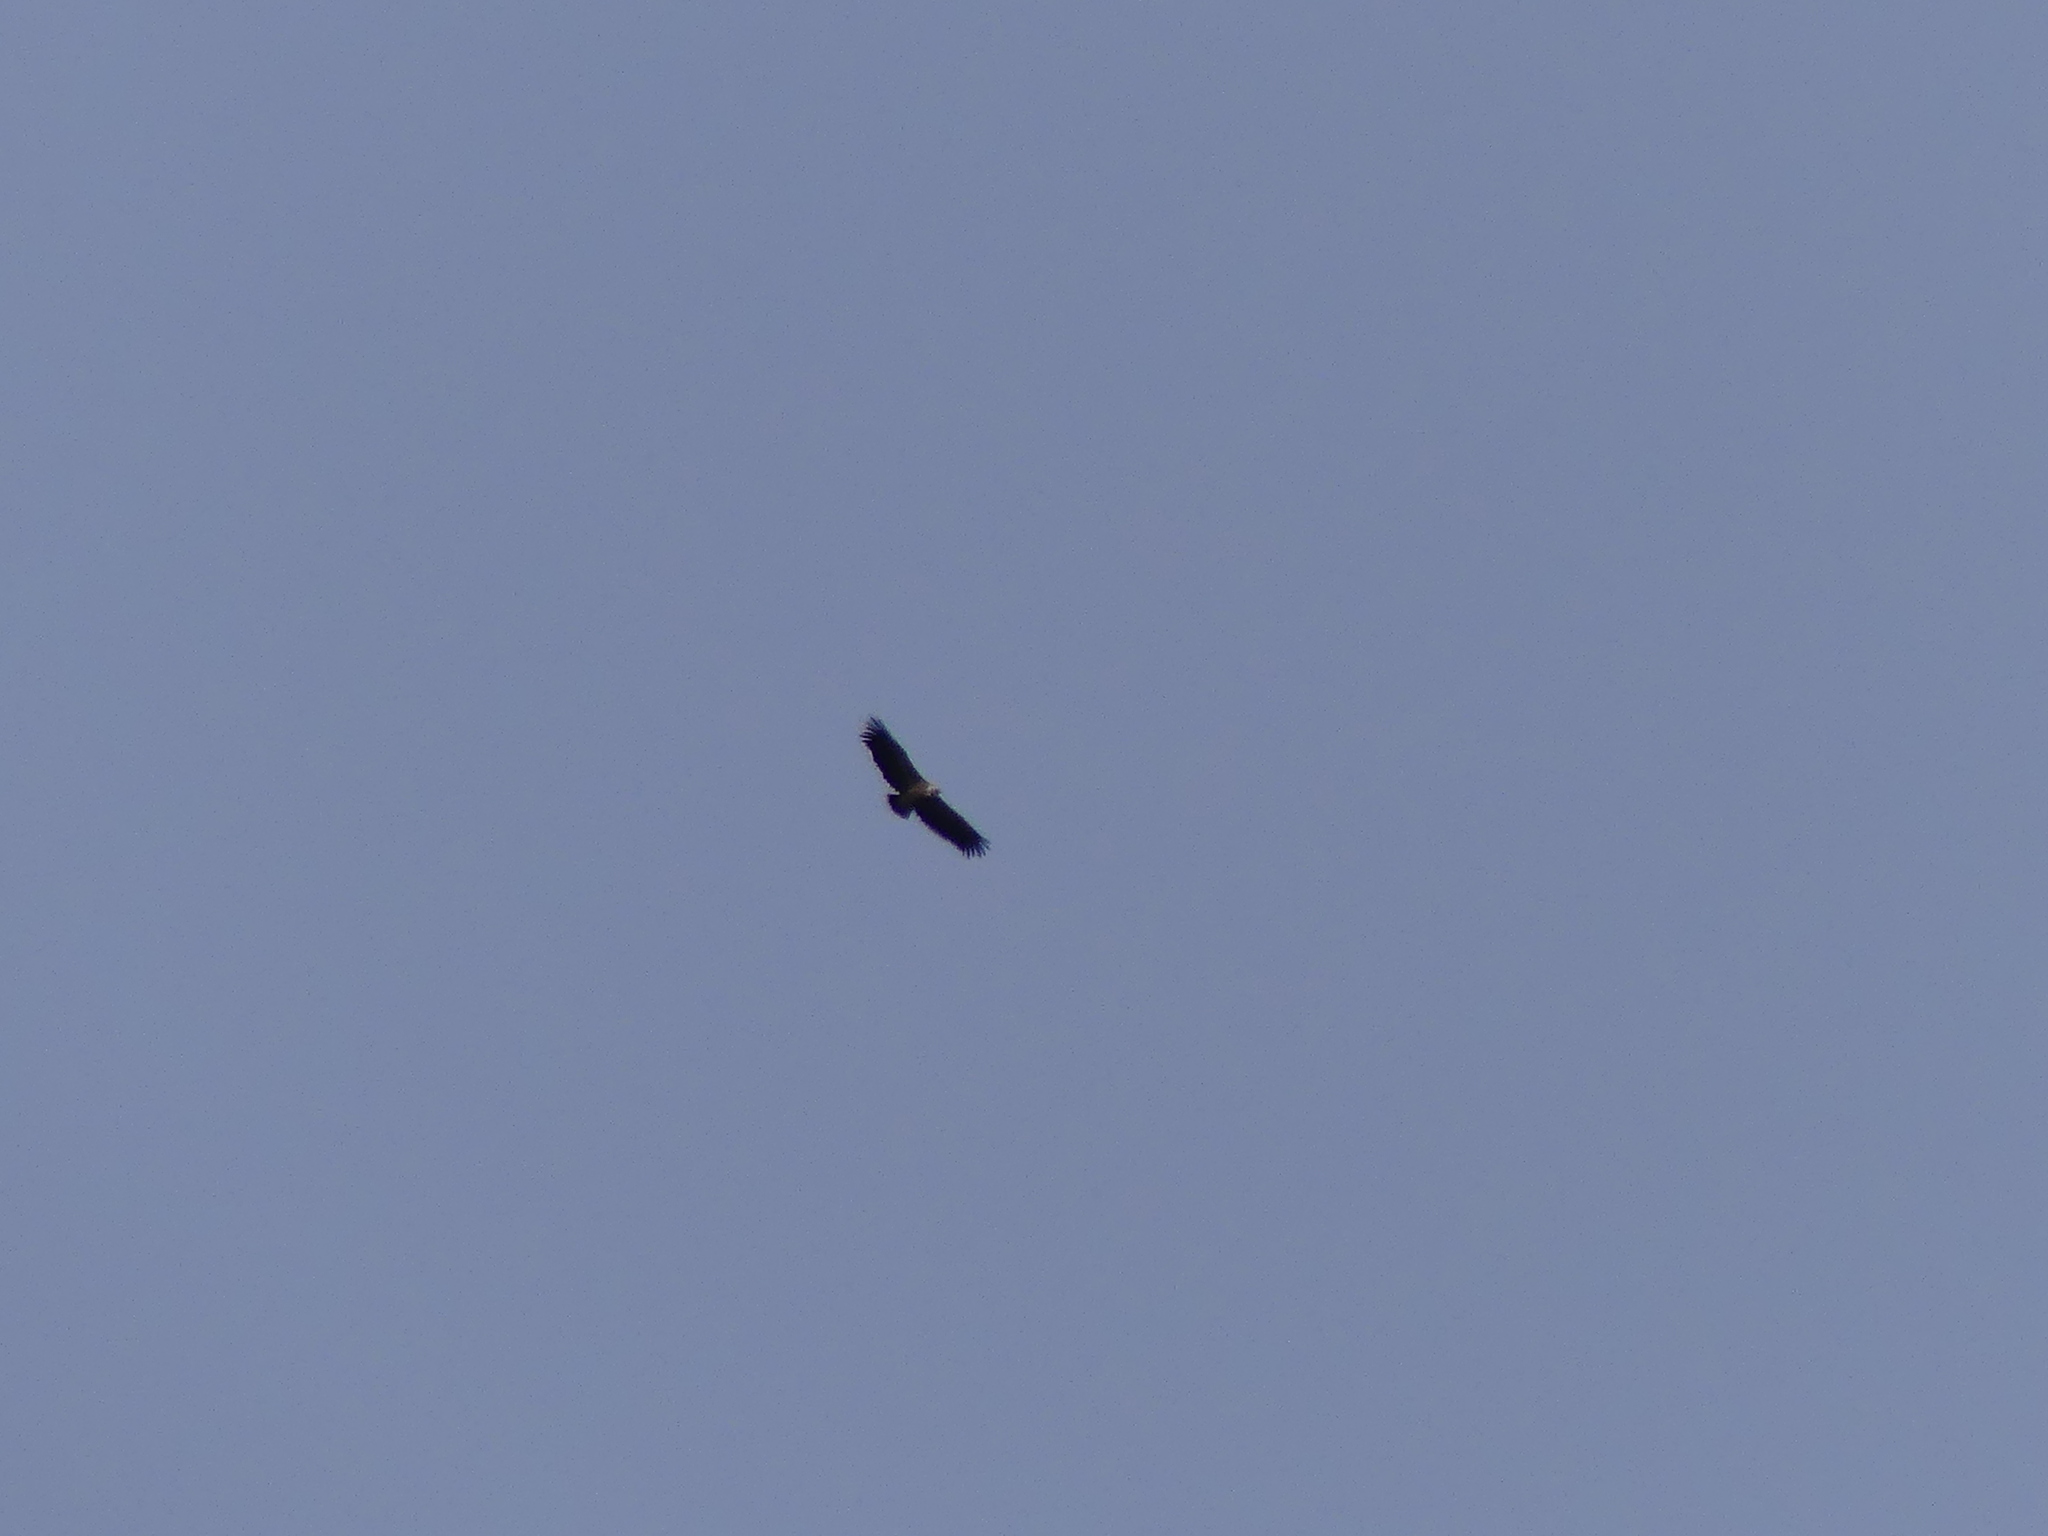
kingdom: Animalia
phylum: Chordata
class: Aves
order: Accipitriformes
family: Accipitridae
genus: Gyps
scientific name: Gyps fulvus
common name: Griffon vulture
